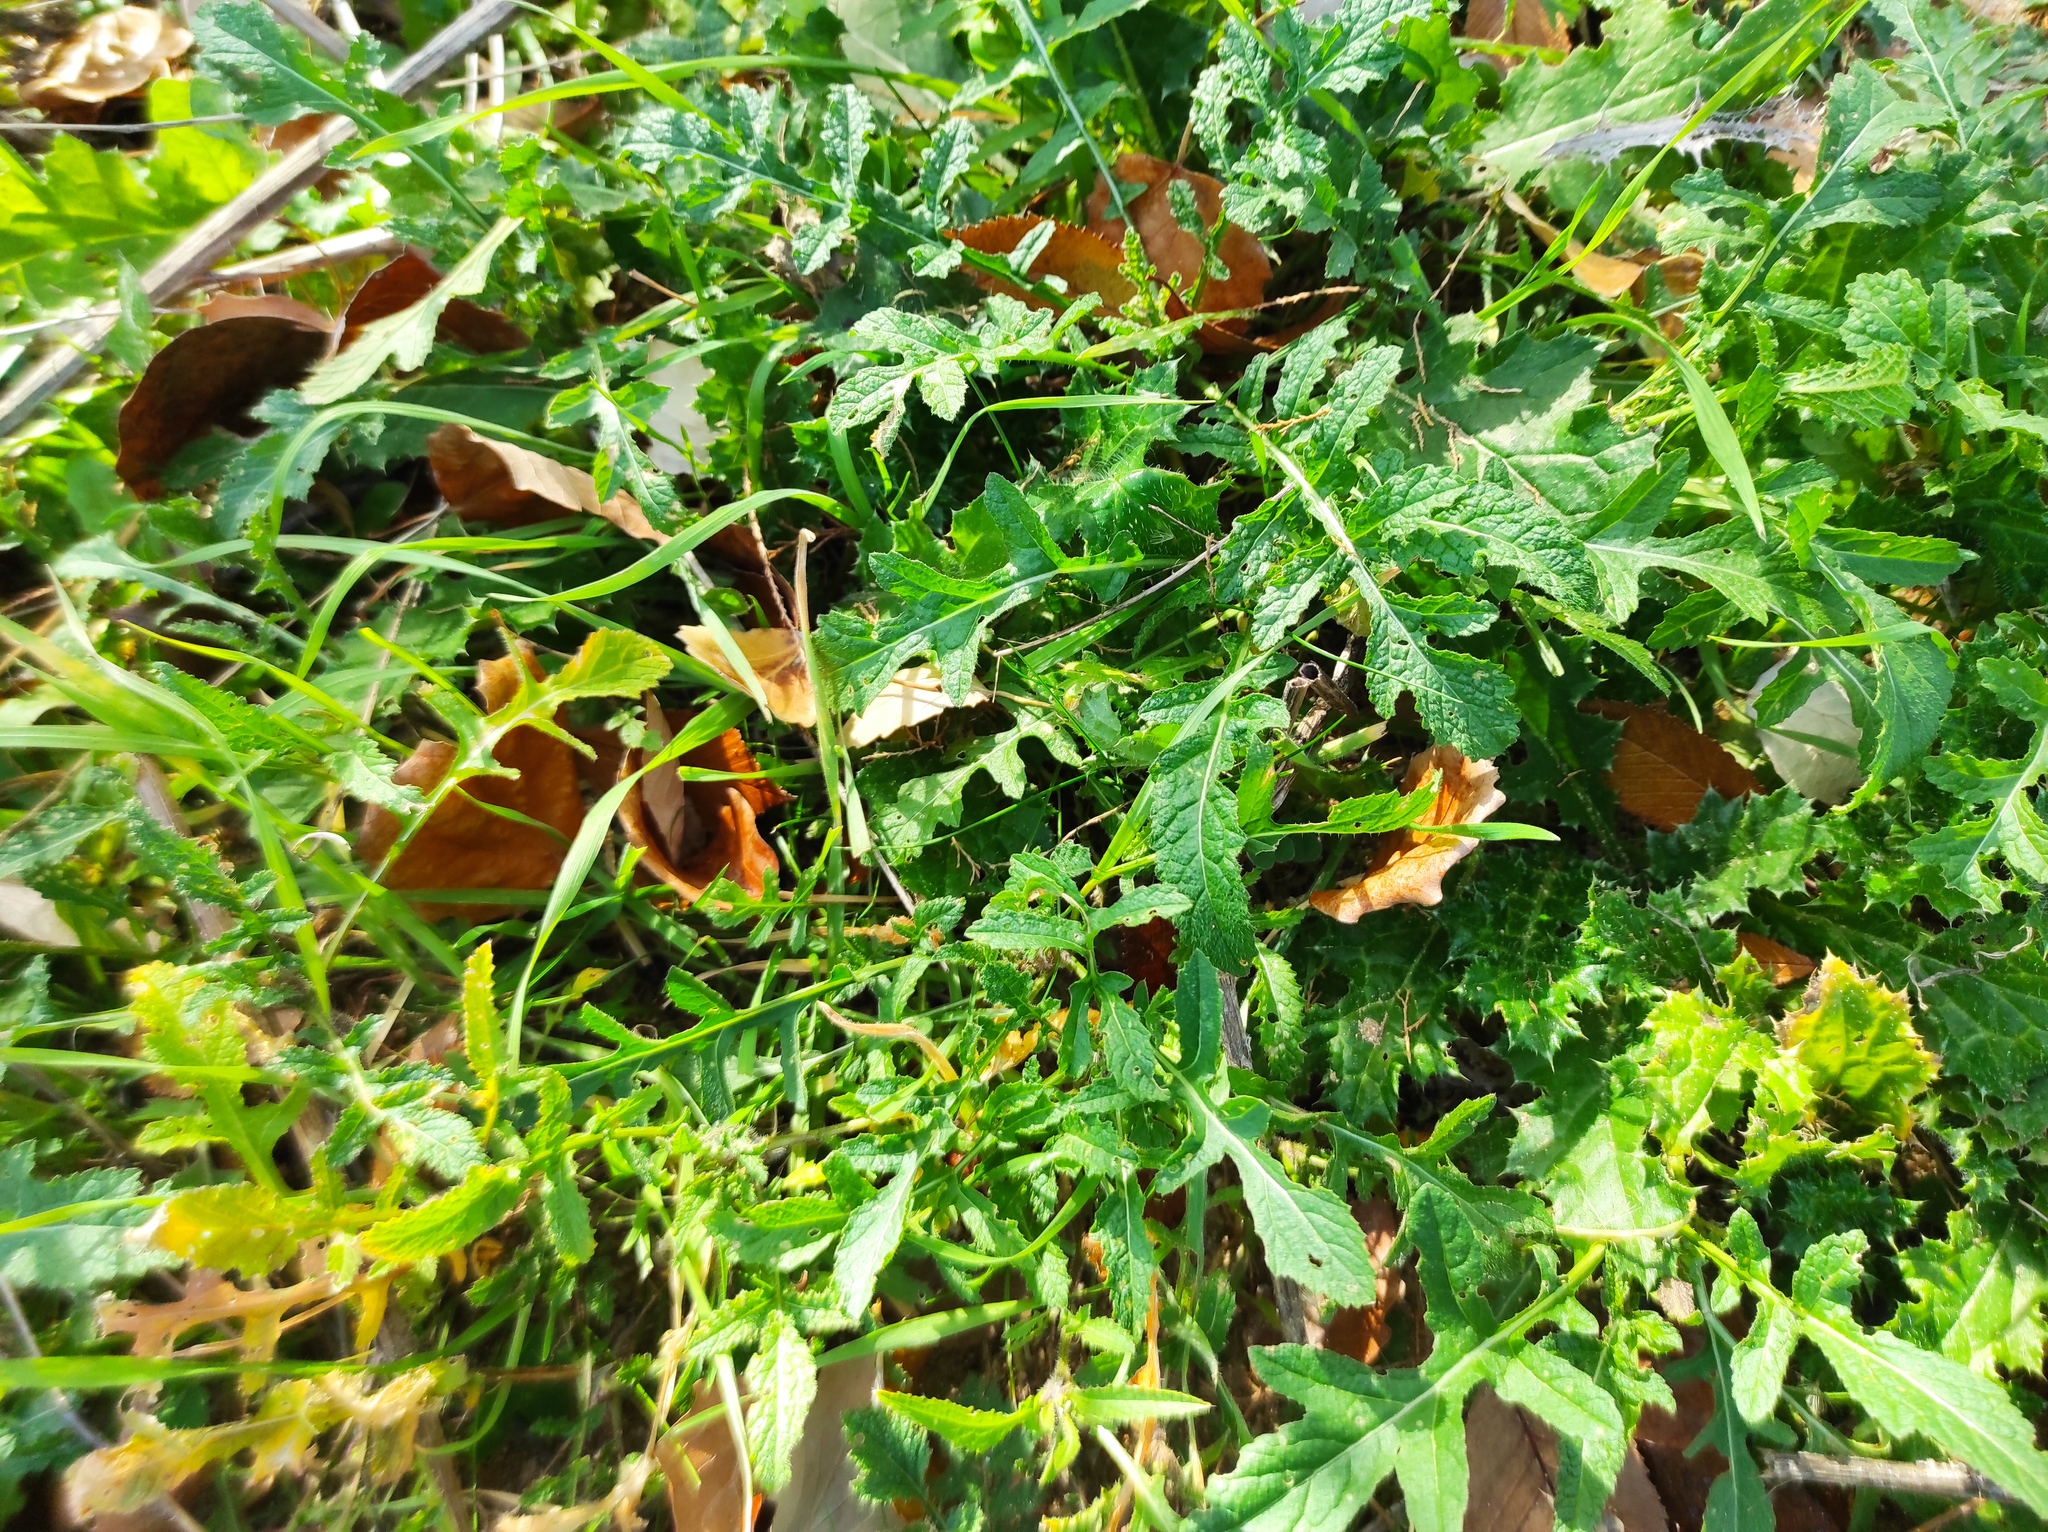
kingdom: Plantae
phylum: Tracheophyta
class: Magnoliopsida
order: Brassicales
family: Brassicaceae
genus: Diplotaxis
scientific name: Diplotaxis erucoides
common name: White rocket
